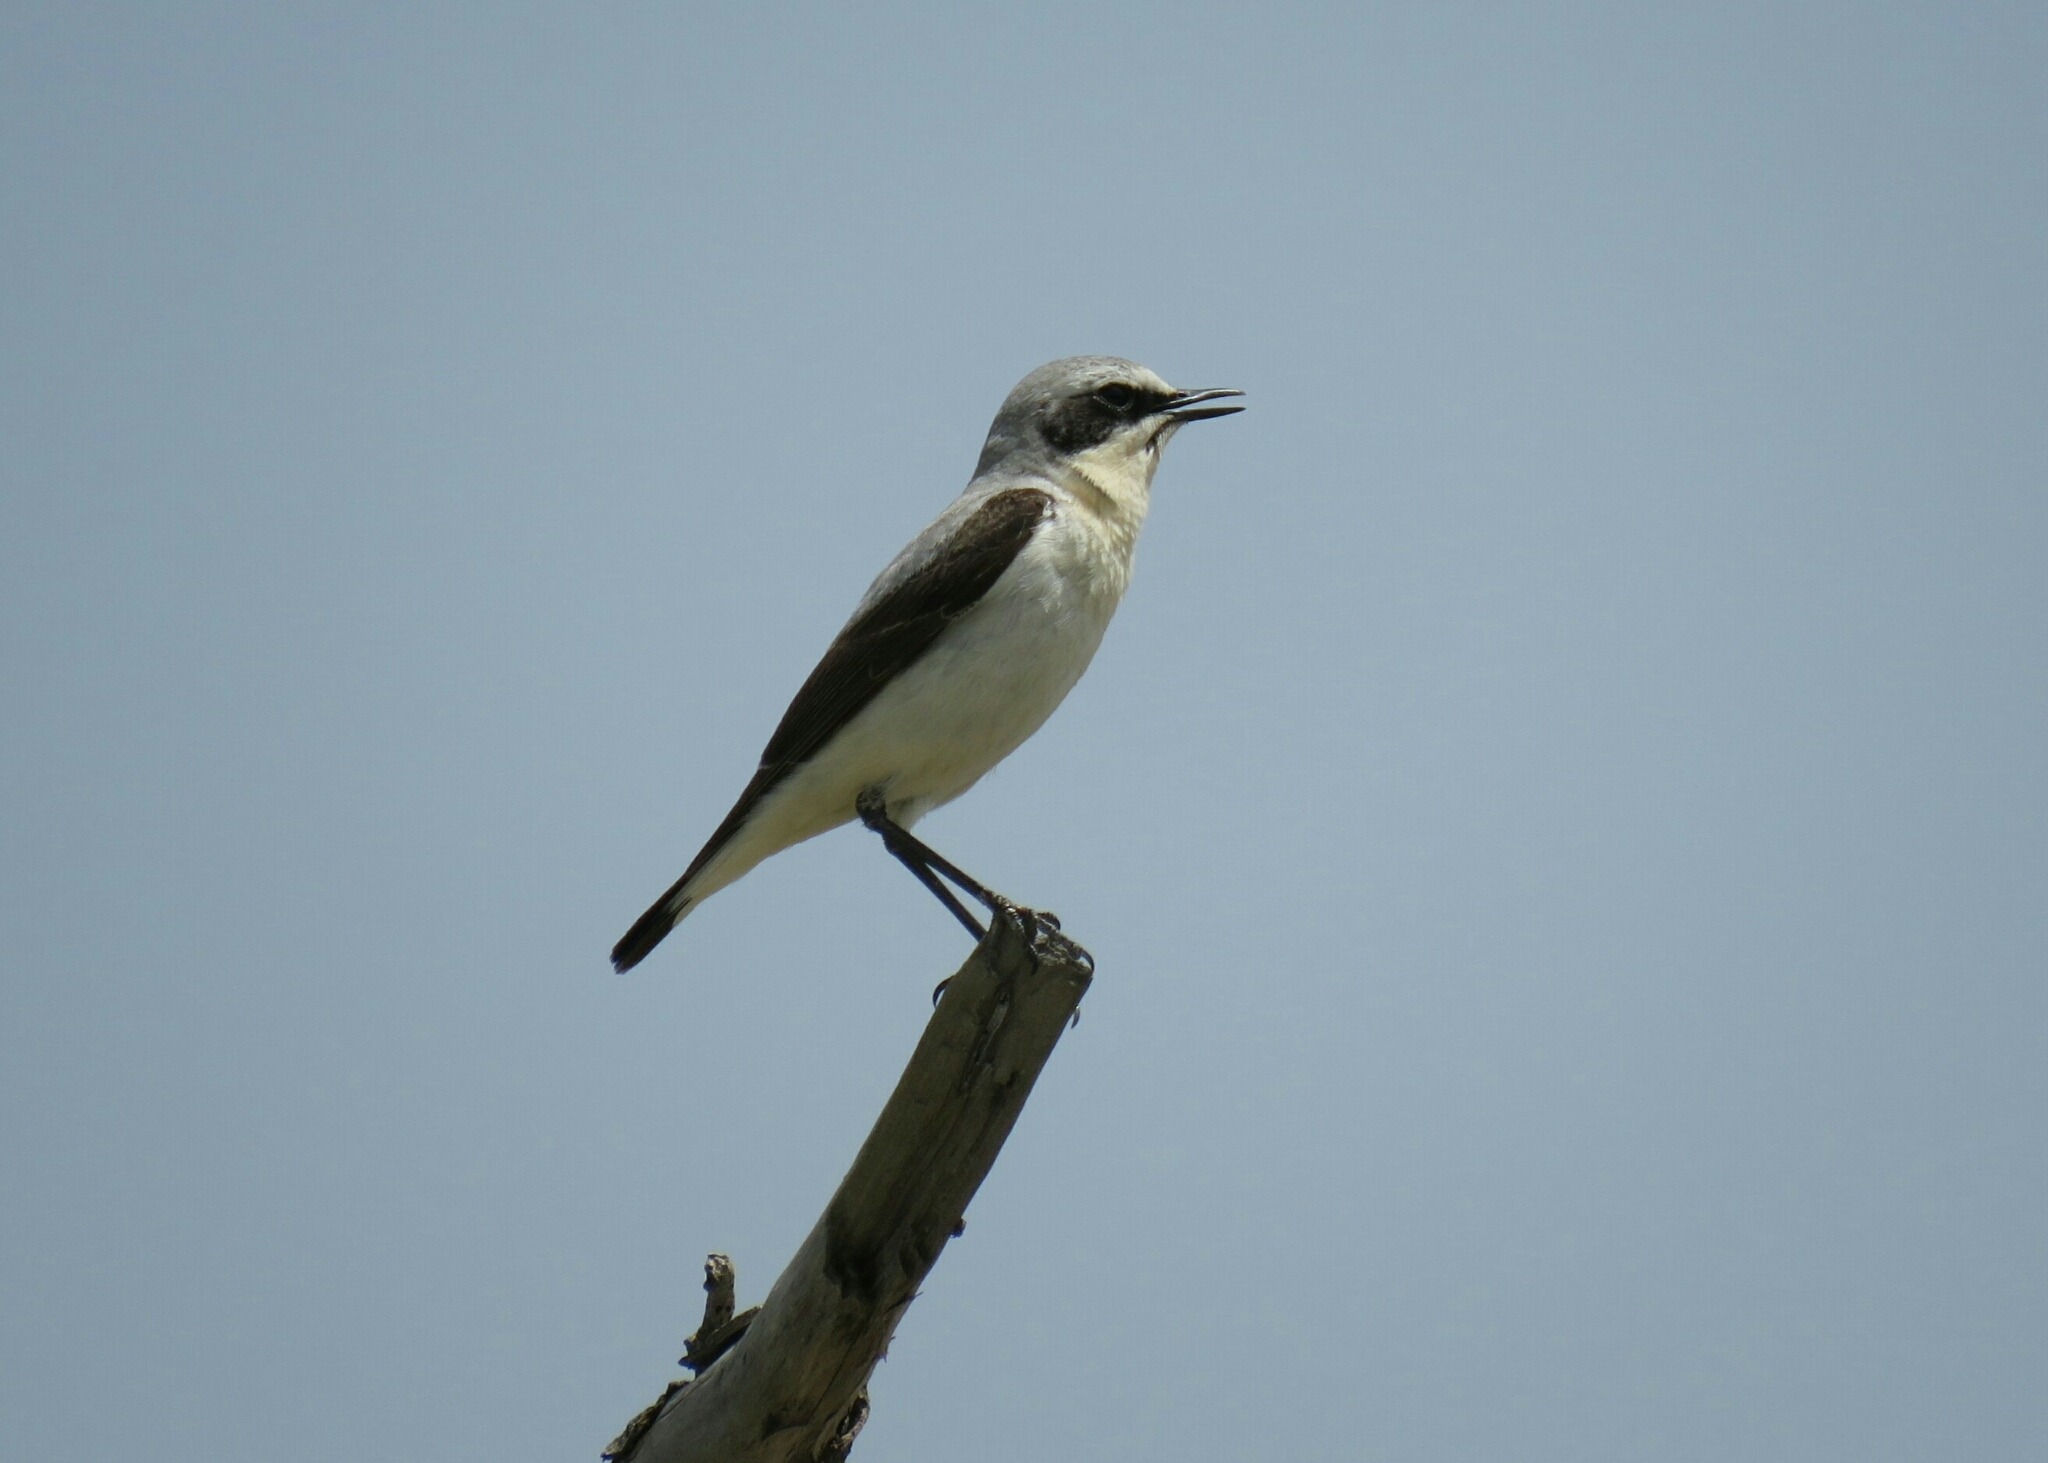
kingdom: Animalia
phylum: Chordata
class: Aves
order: Passeriformes
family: Muscicapidae
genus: Oenanthe
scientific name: Oenanthe oenanthe
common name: Northern wheatear
